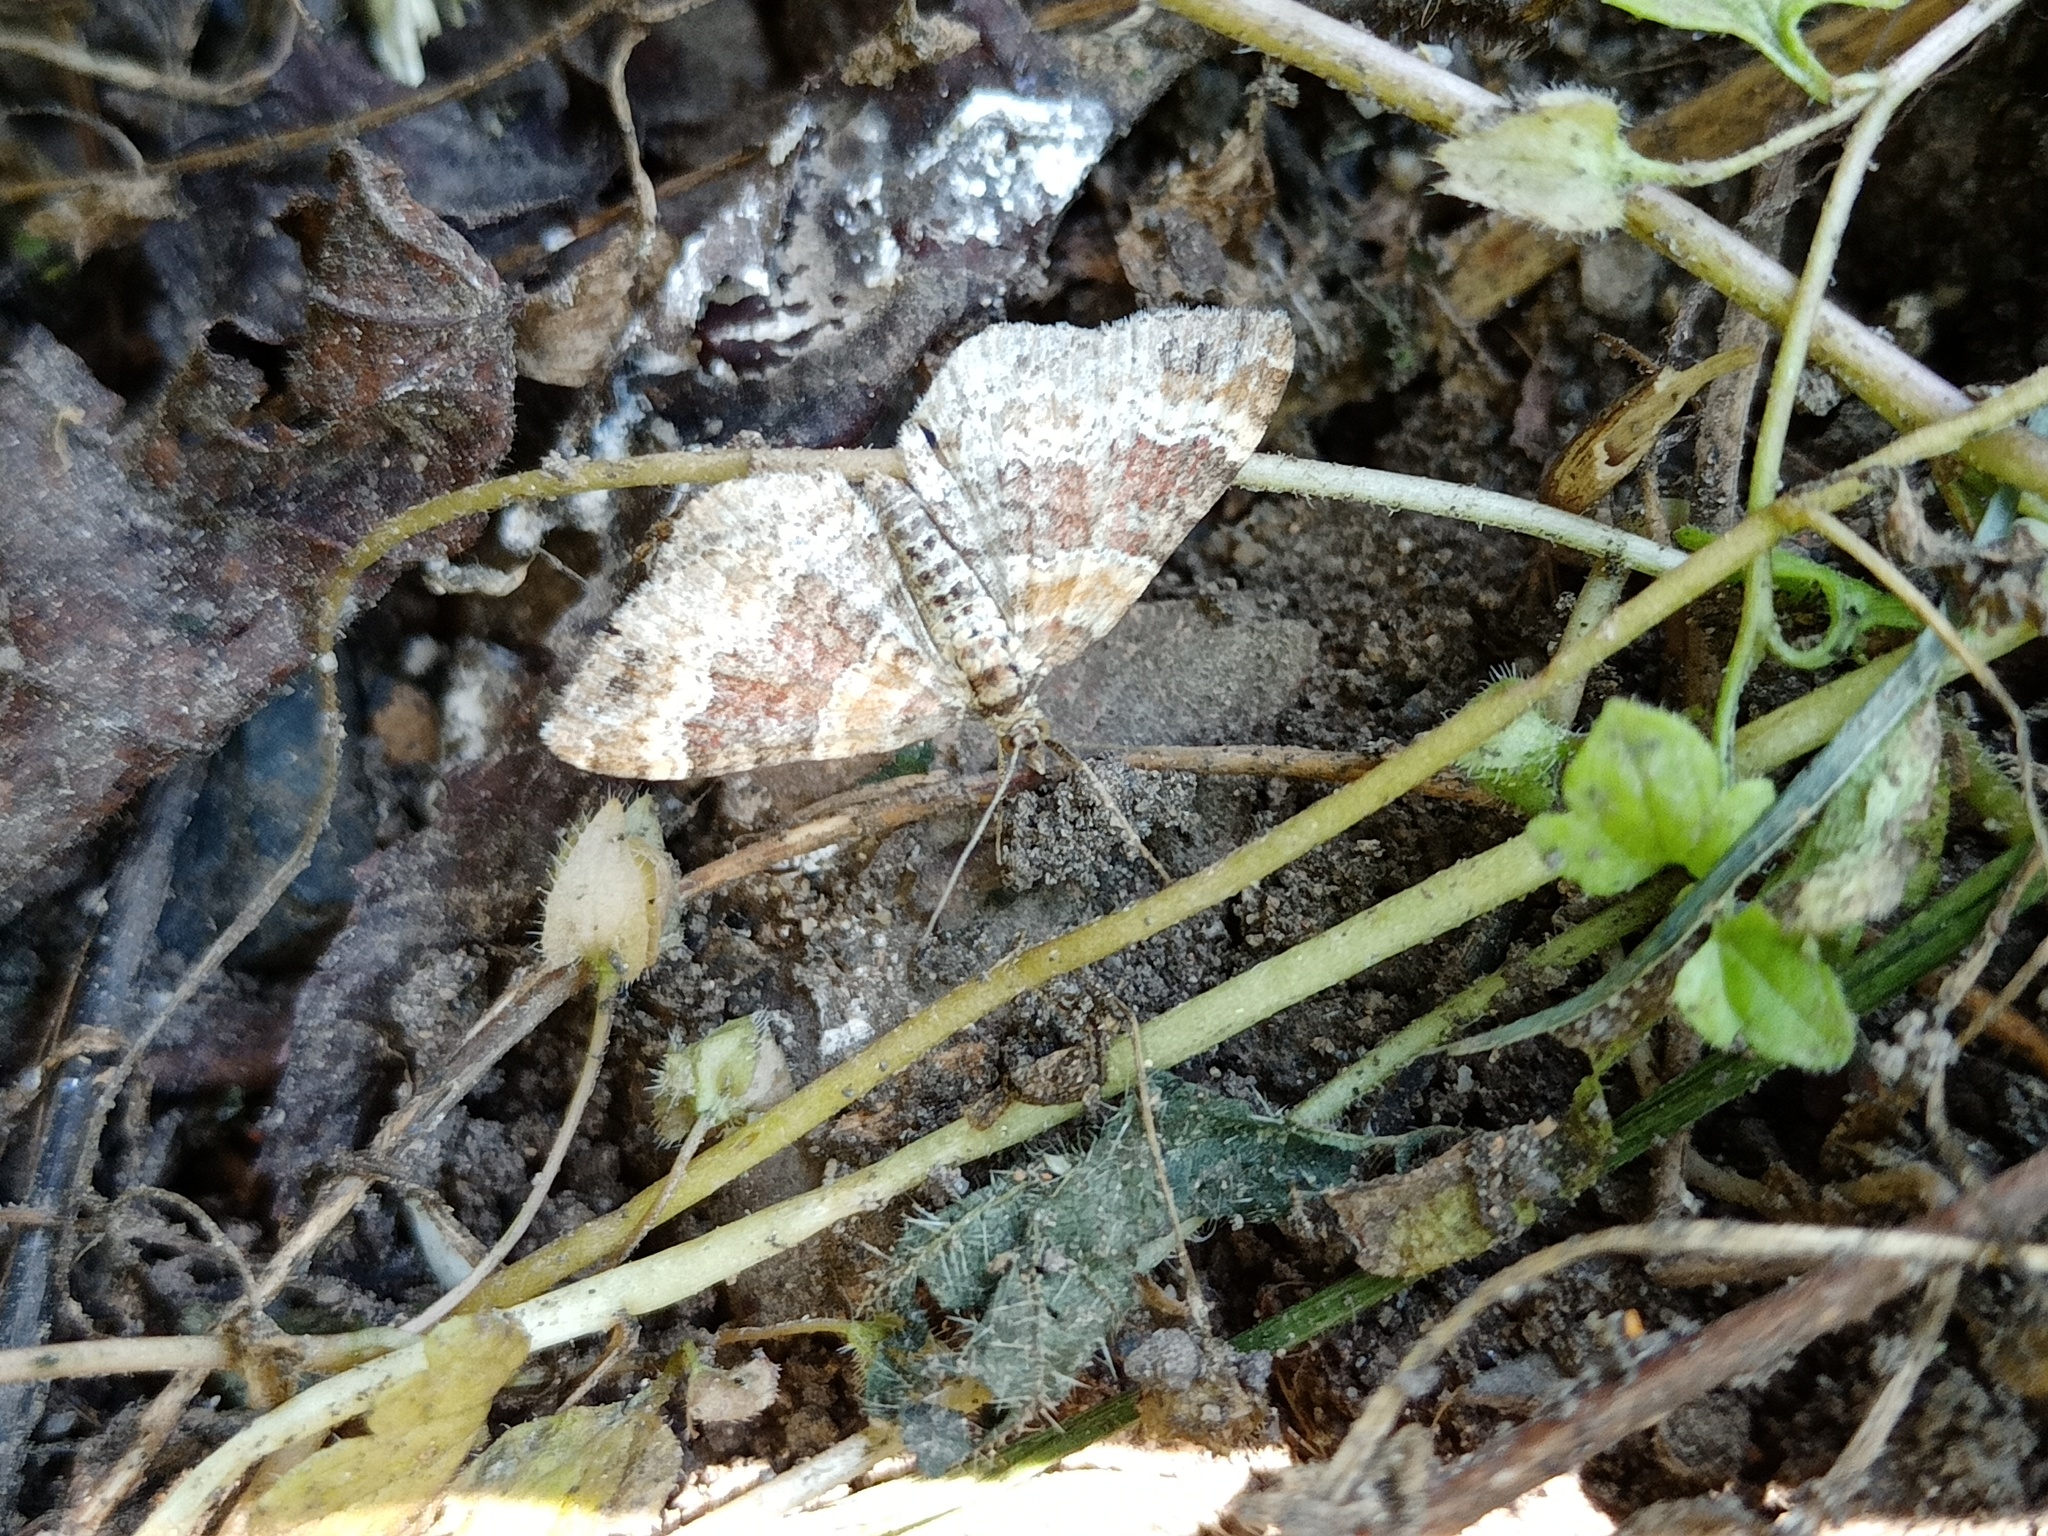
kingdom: Animalia
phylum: Arthropoda
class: Insecta
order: Lepidoptera
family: Geometridae
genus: Xanthorhoe
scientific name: Xanthorhoe spadicearia
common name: Red twin-spot carpet
